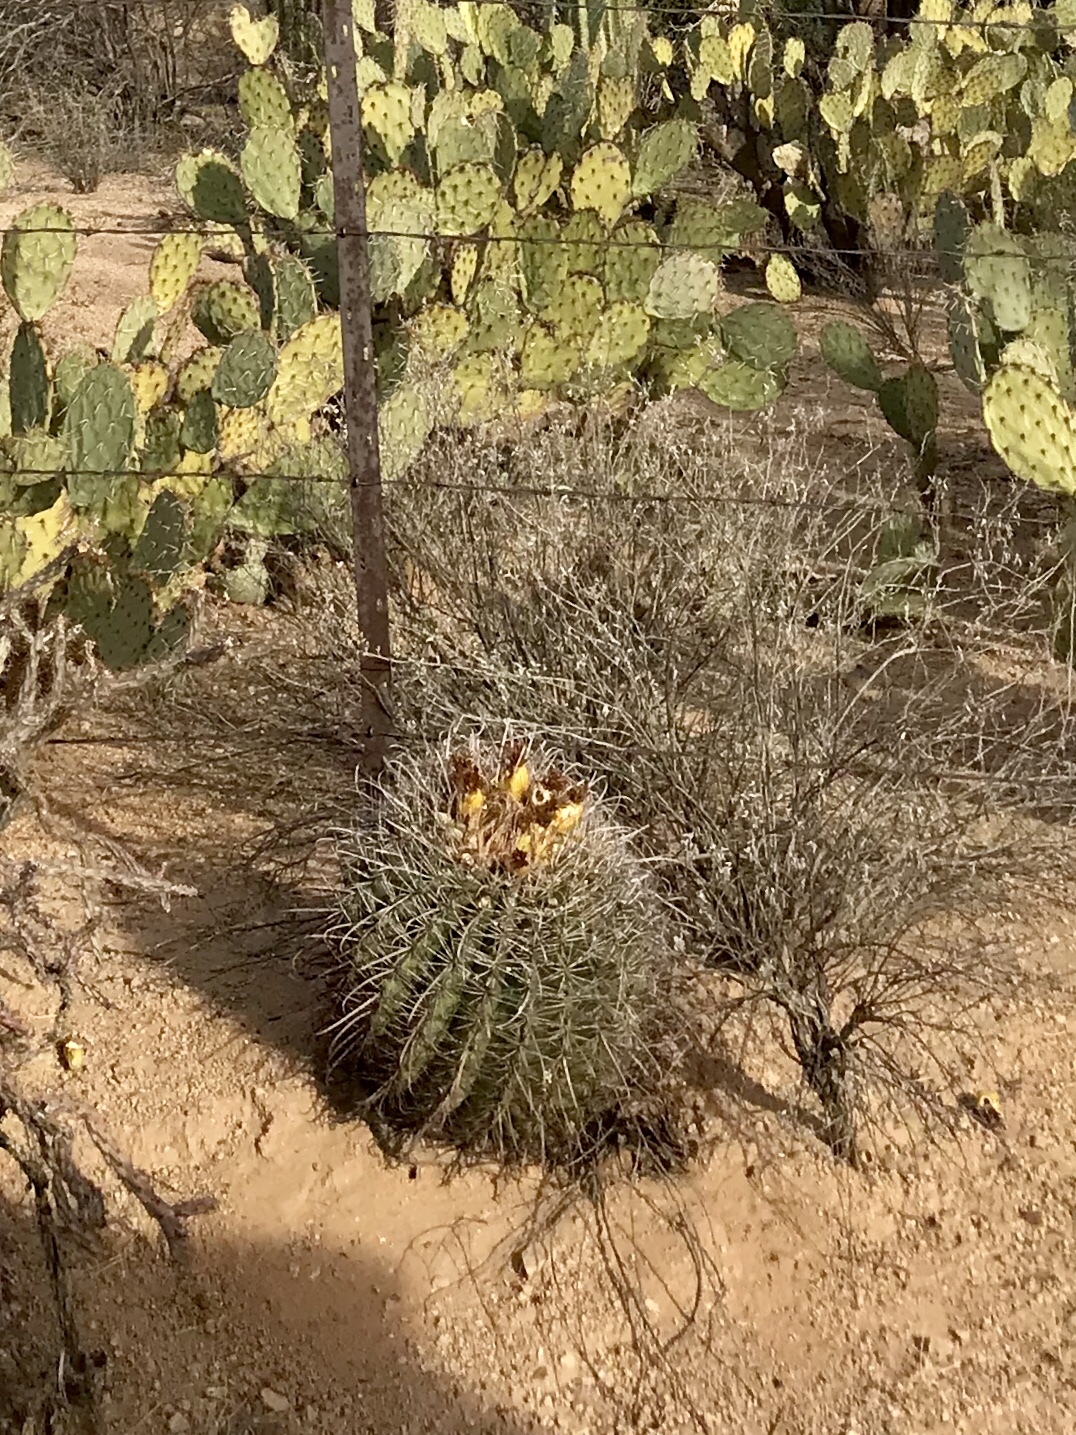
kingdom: Plantae
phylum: Tracheophyta
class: Magnoliopsida
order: Caryophyllales
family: Cactaceae
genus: Ferocactus
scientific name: Ferocactus wislizeni
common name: Candy barrel cactus
